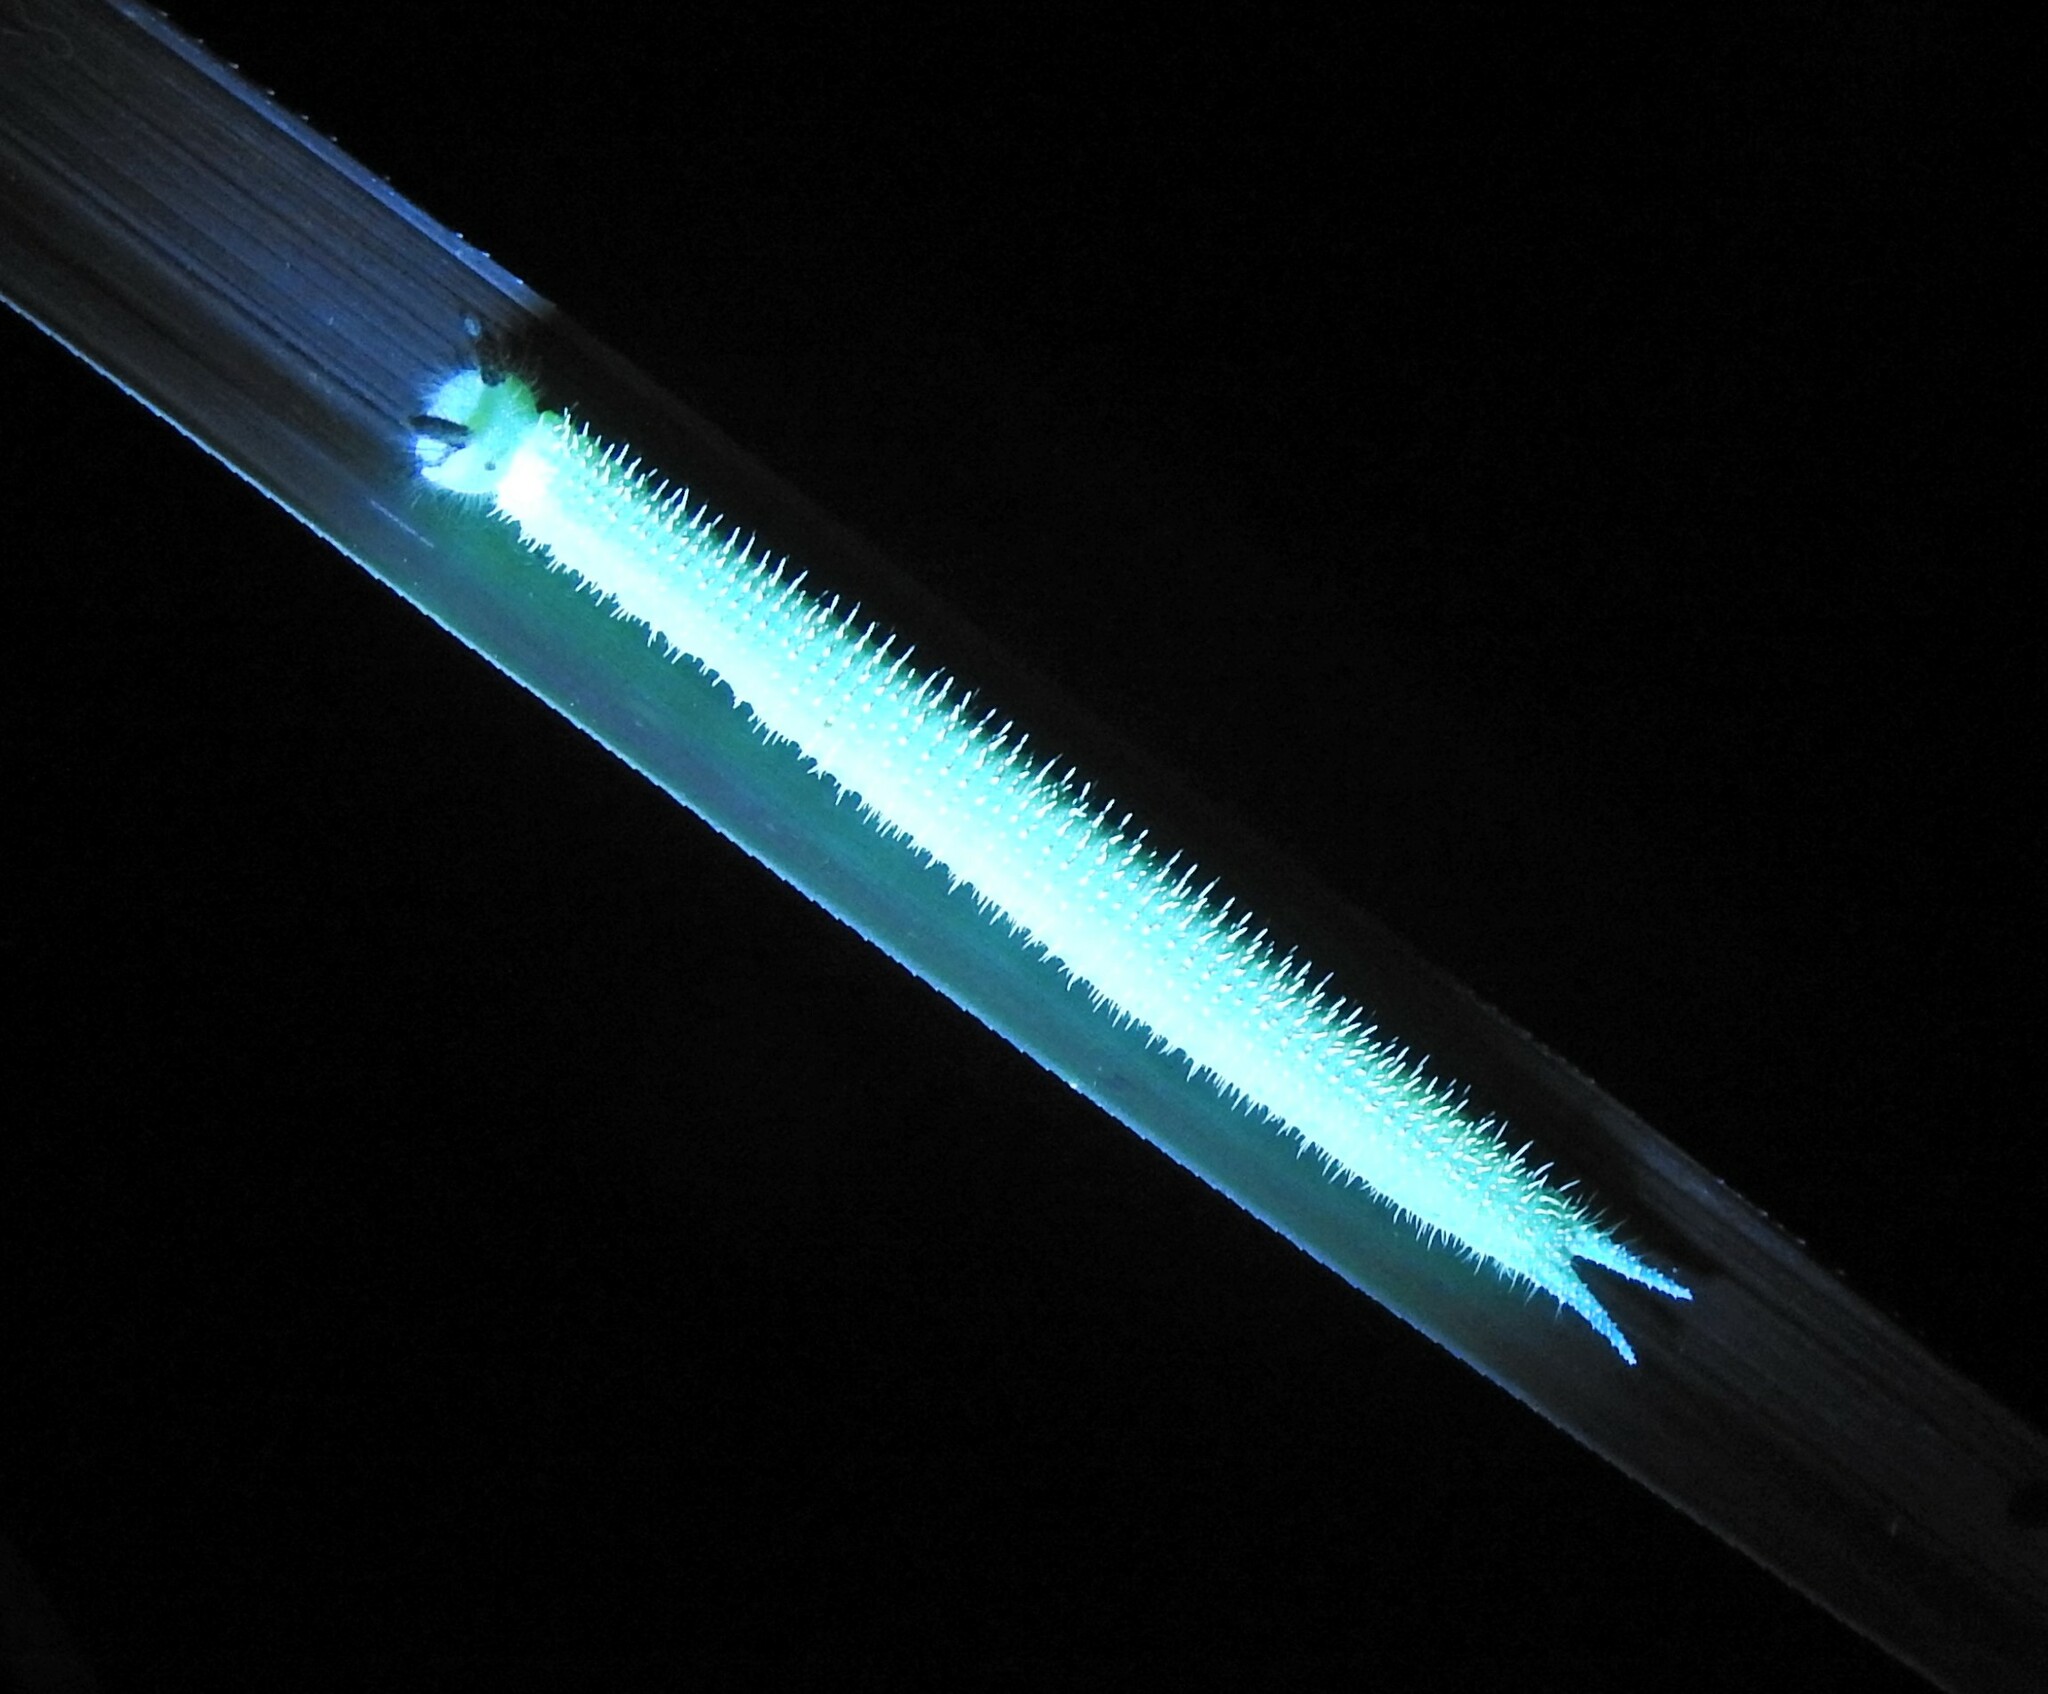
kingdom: Animalia
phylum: Arthropoda
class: Insecta
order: Lepidoptera
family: Nymphalidae
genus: Melanitis
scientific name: Melanitis leda
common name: Twilight brown
